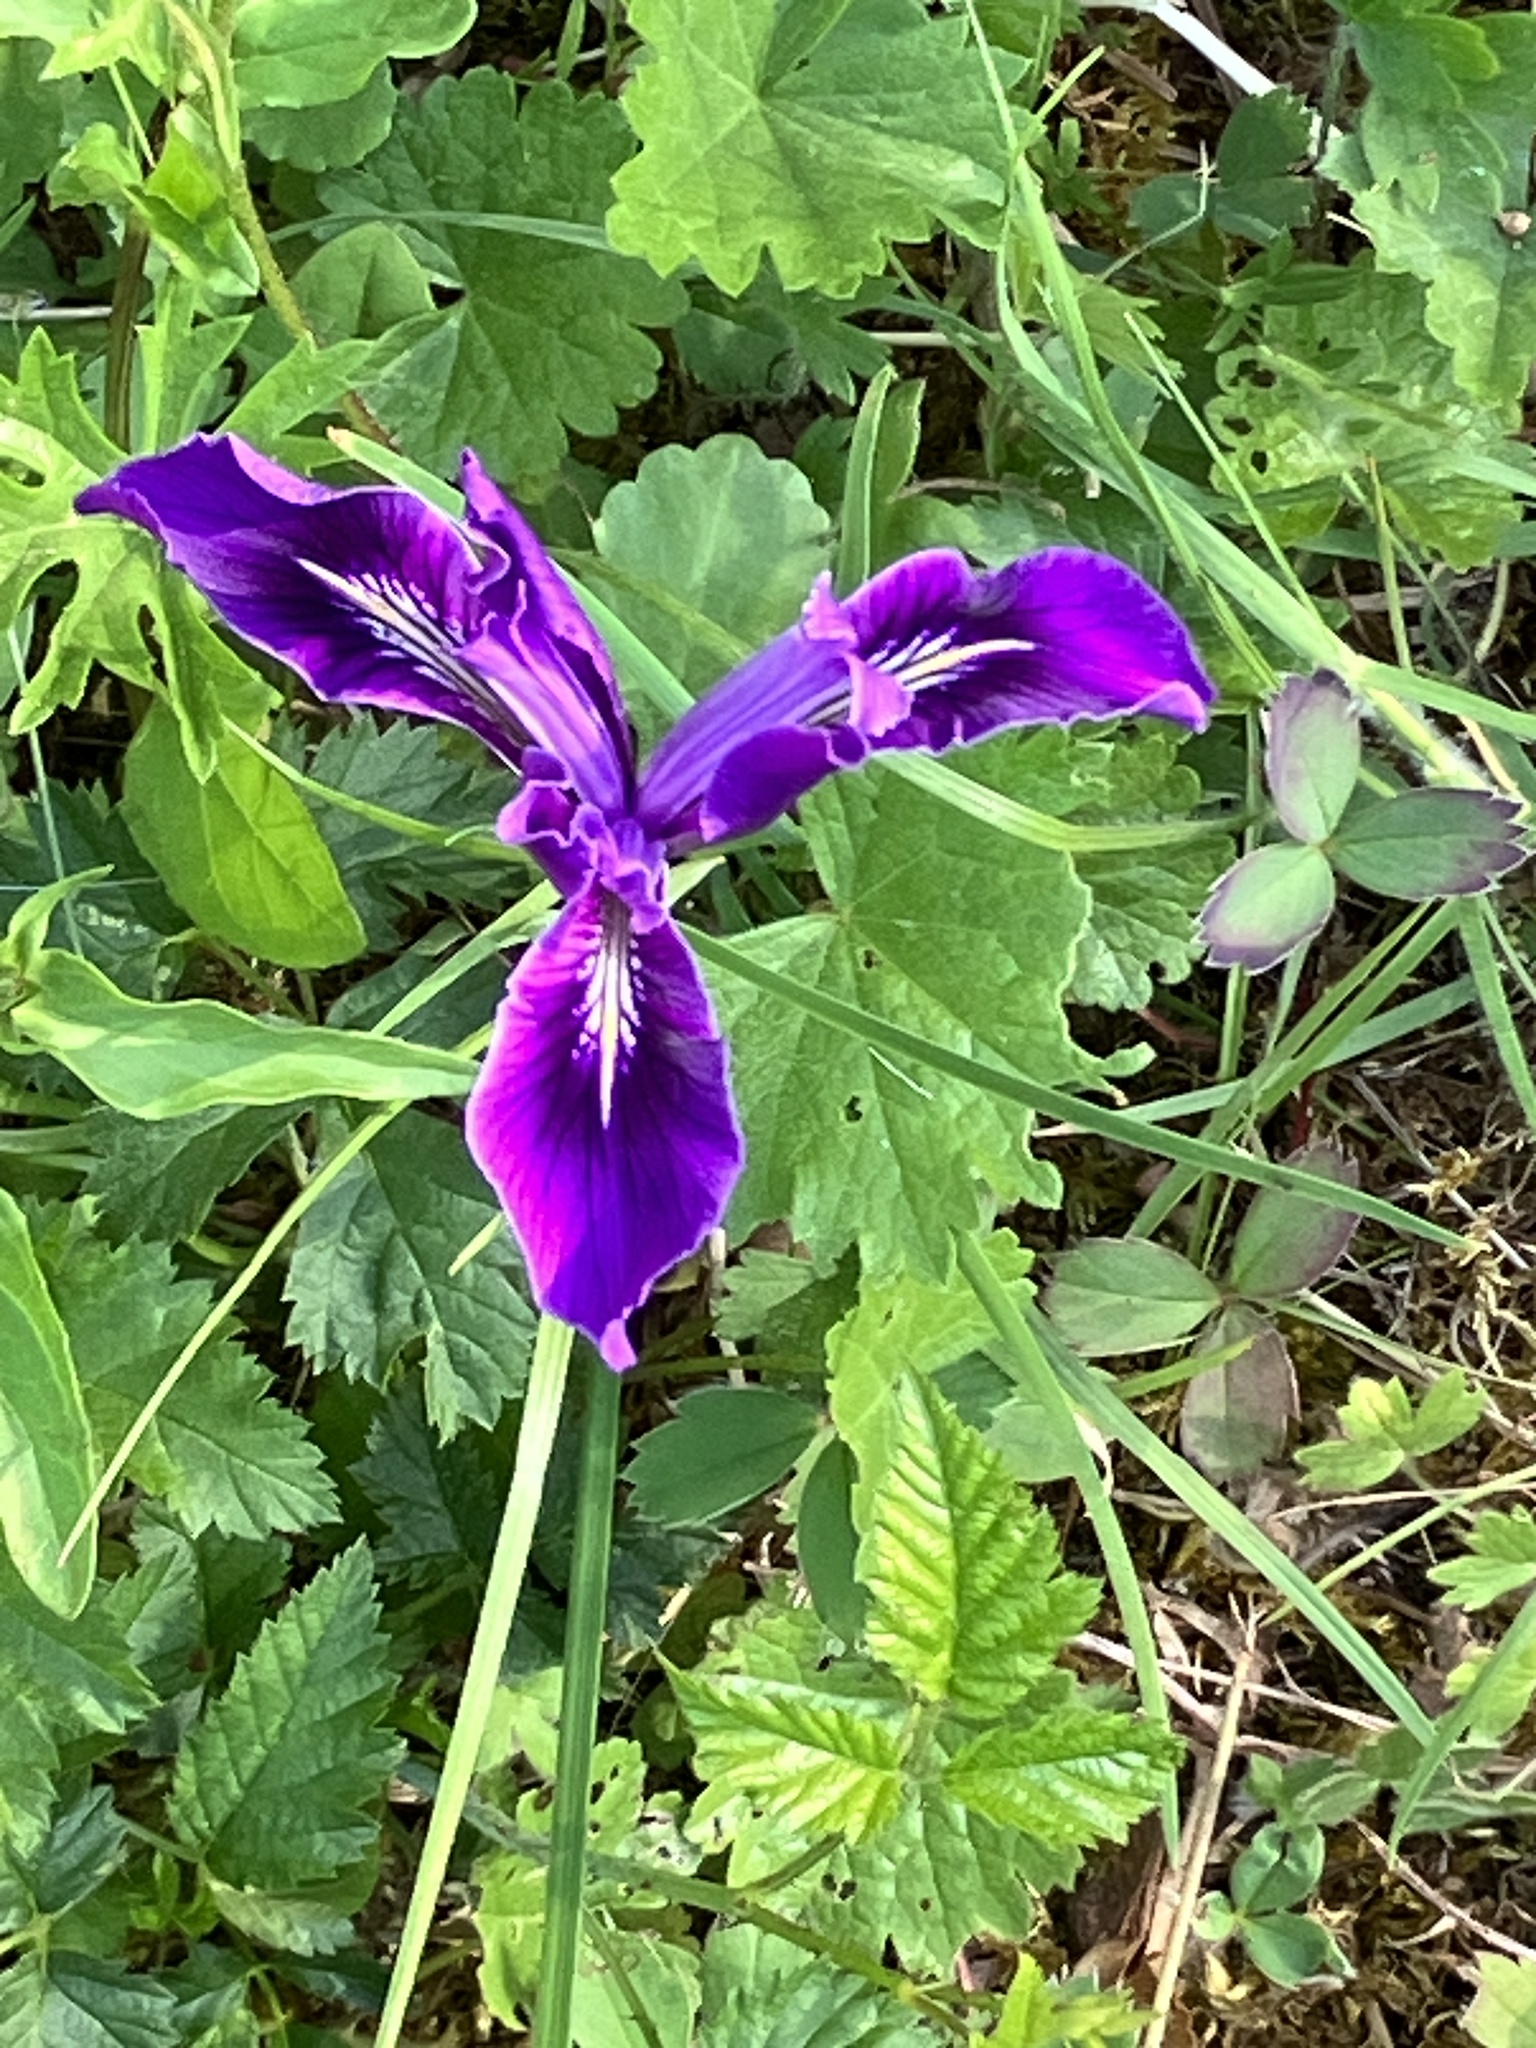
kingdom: Plantae
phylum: Tracheophyta
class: Liliopsida
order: Asparagales
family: Iridaceae
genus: Iris
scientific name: Iris tenax
